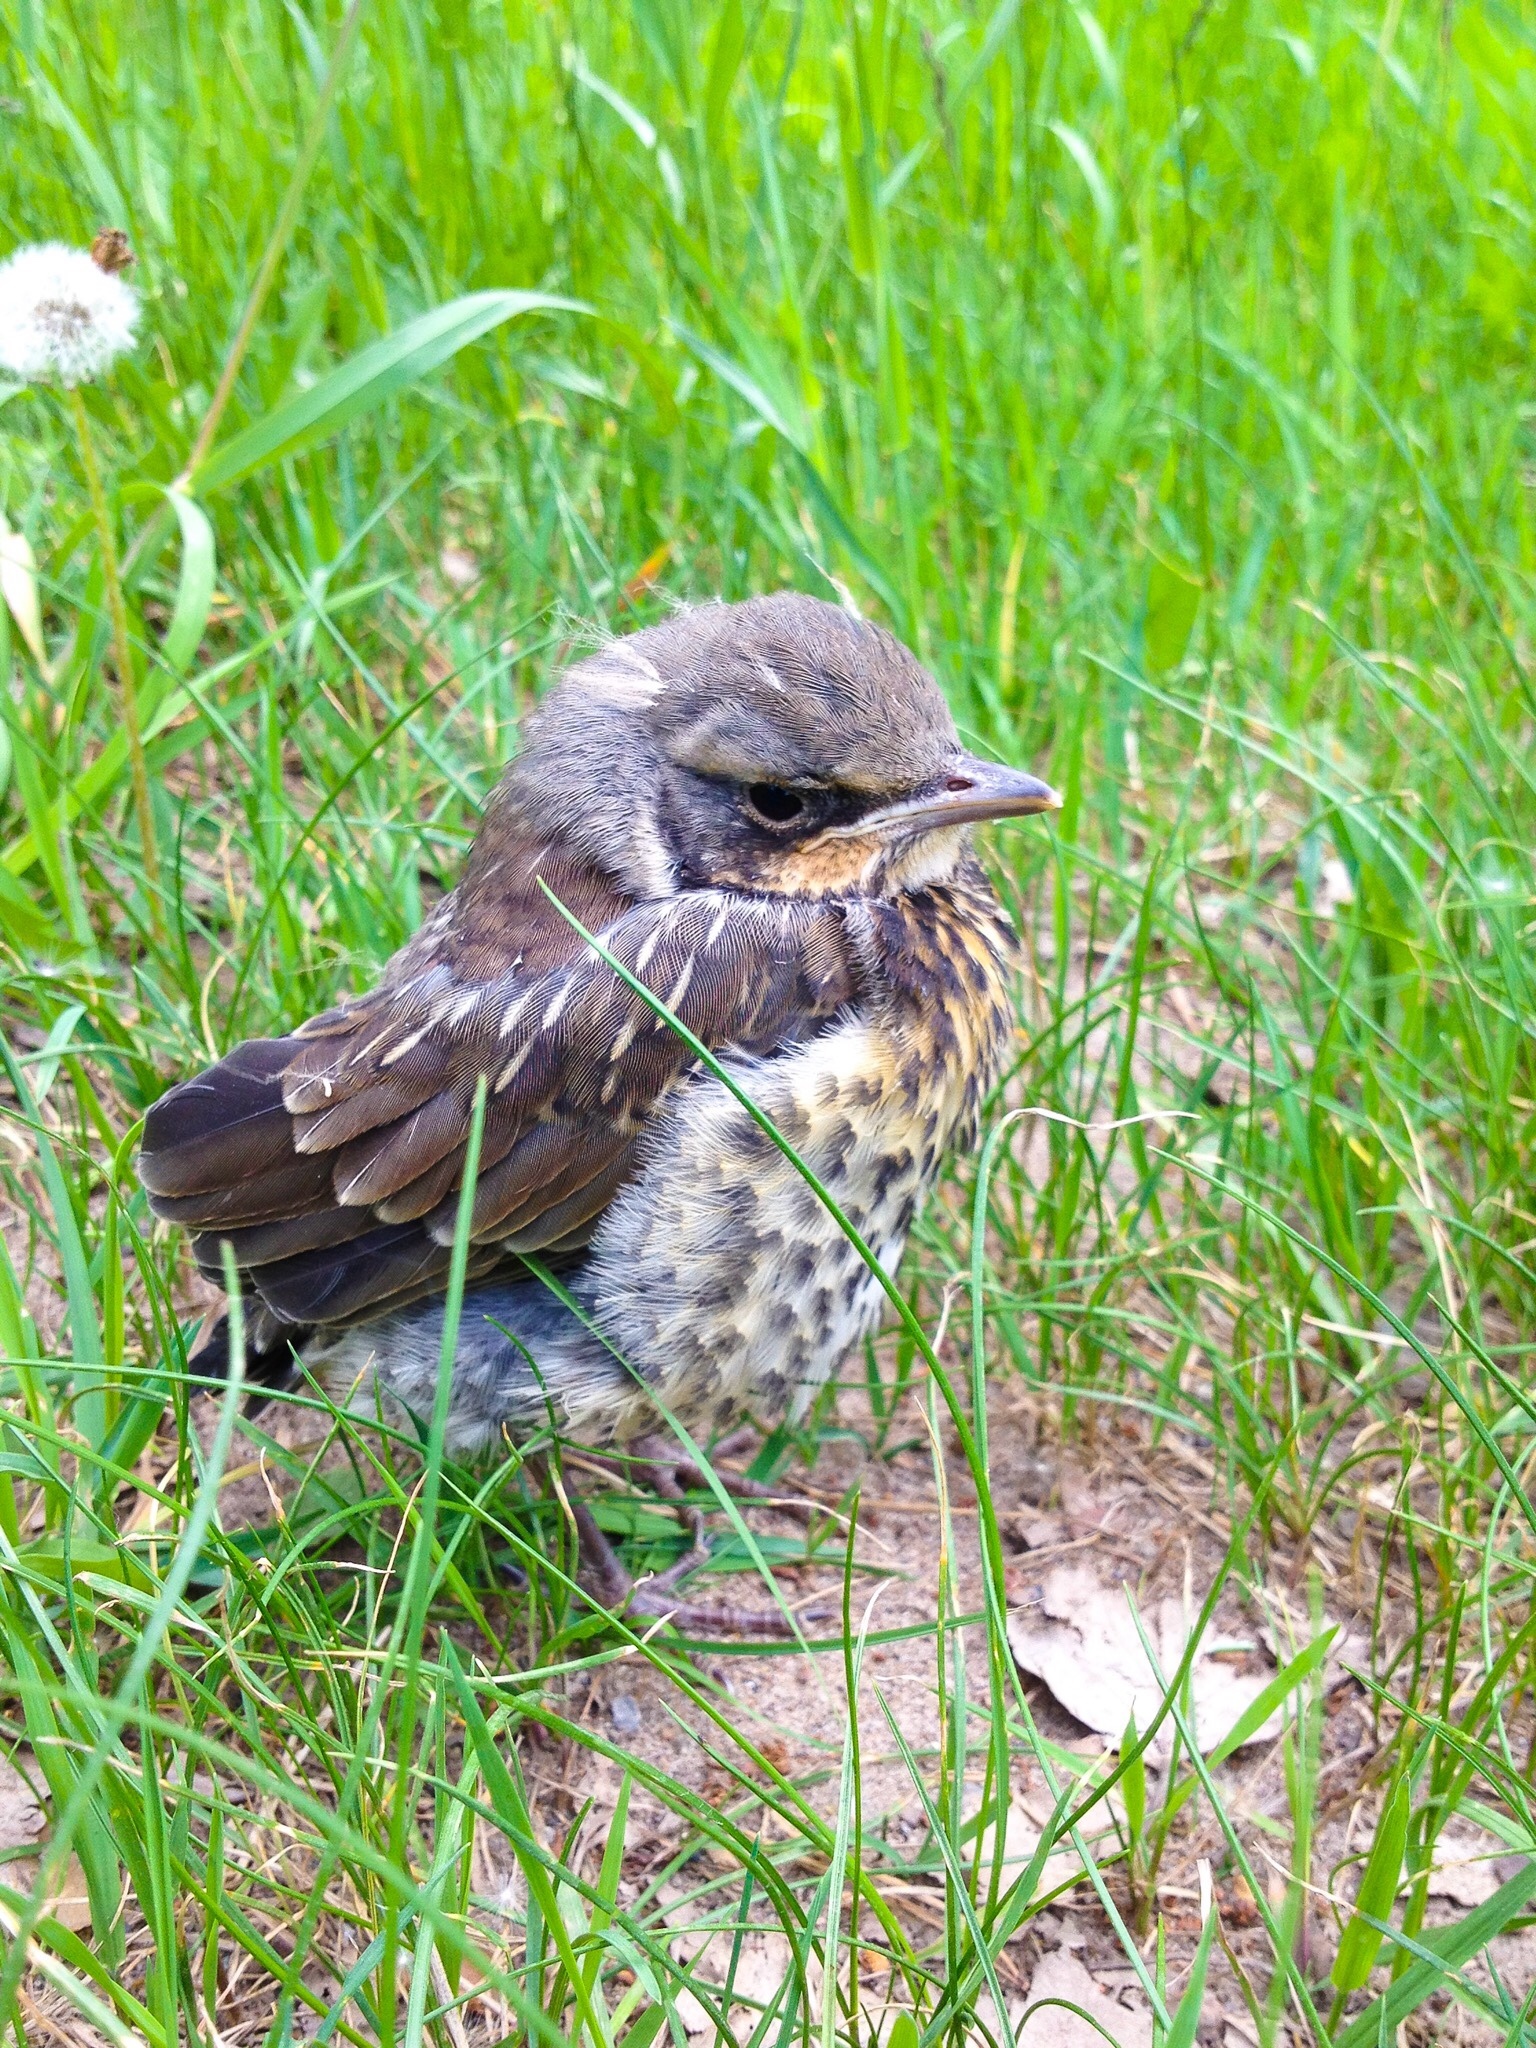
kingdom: Animalia
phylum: Chordata
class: Aves
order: Passeriformes
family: Turdidae
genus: Turdus
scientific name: Turdus pilaris
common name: Fieldfare
